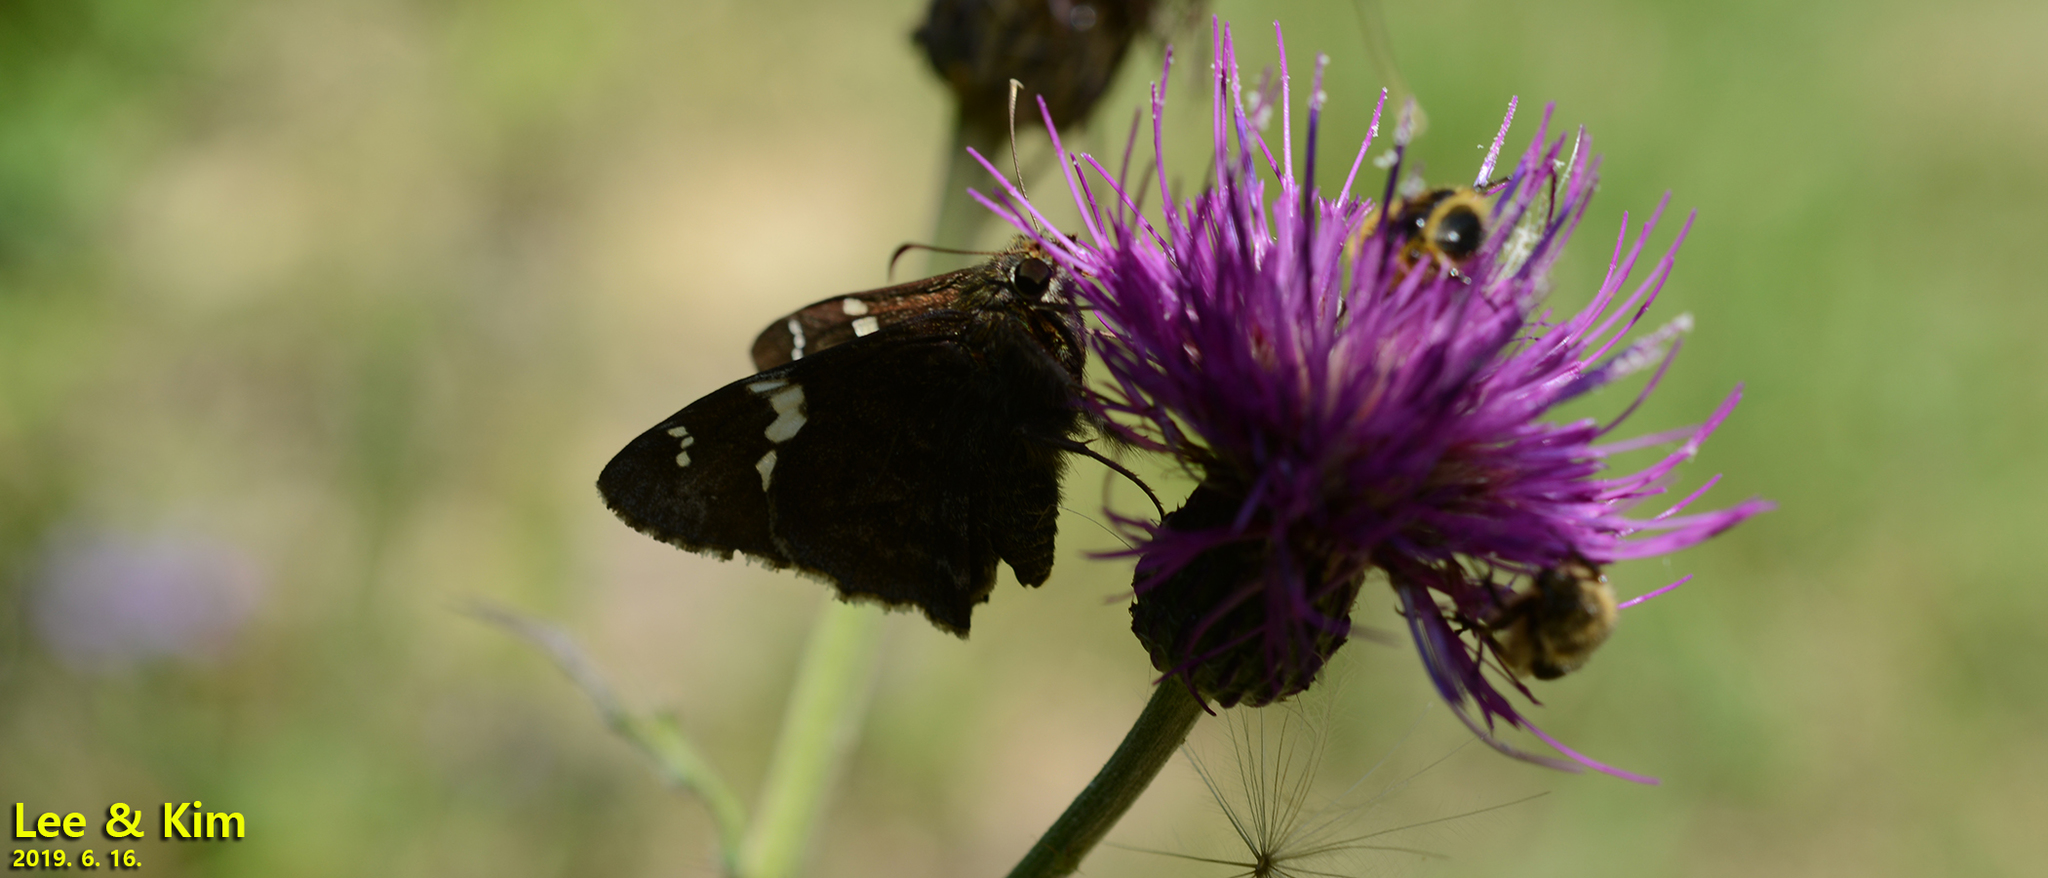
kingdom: Animalia
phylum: Arthropoda
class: Insecta
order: Lepidoptera
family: Hesperiidae
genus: Lobocla
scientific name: Lobocla bifasciatus
